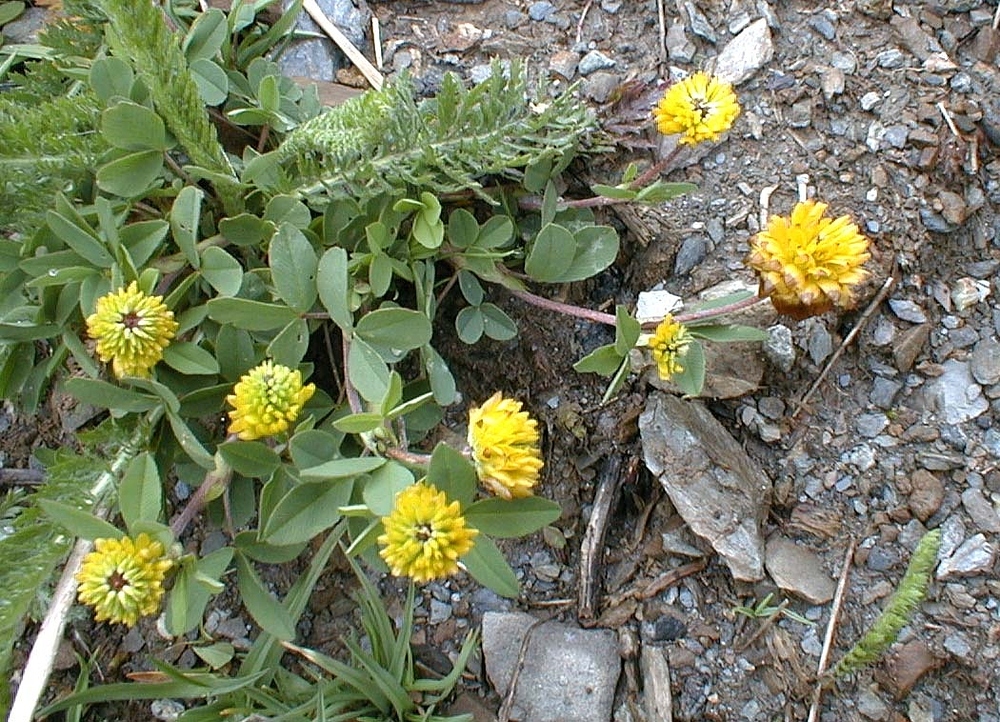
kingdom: Plantae
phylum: Tracheophyta
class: Magnoliopsida
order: Fabales
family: Fabaceae
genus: Trifolium
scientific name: Trifolium badium
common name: Brown clover
